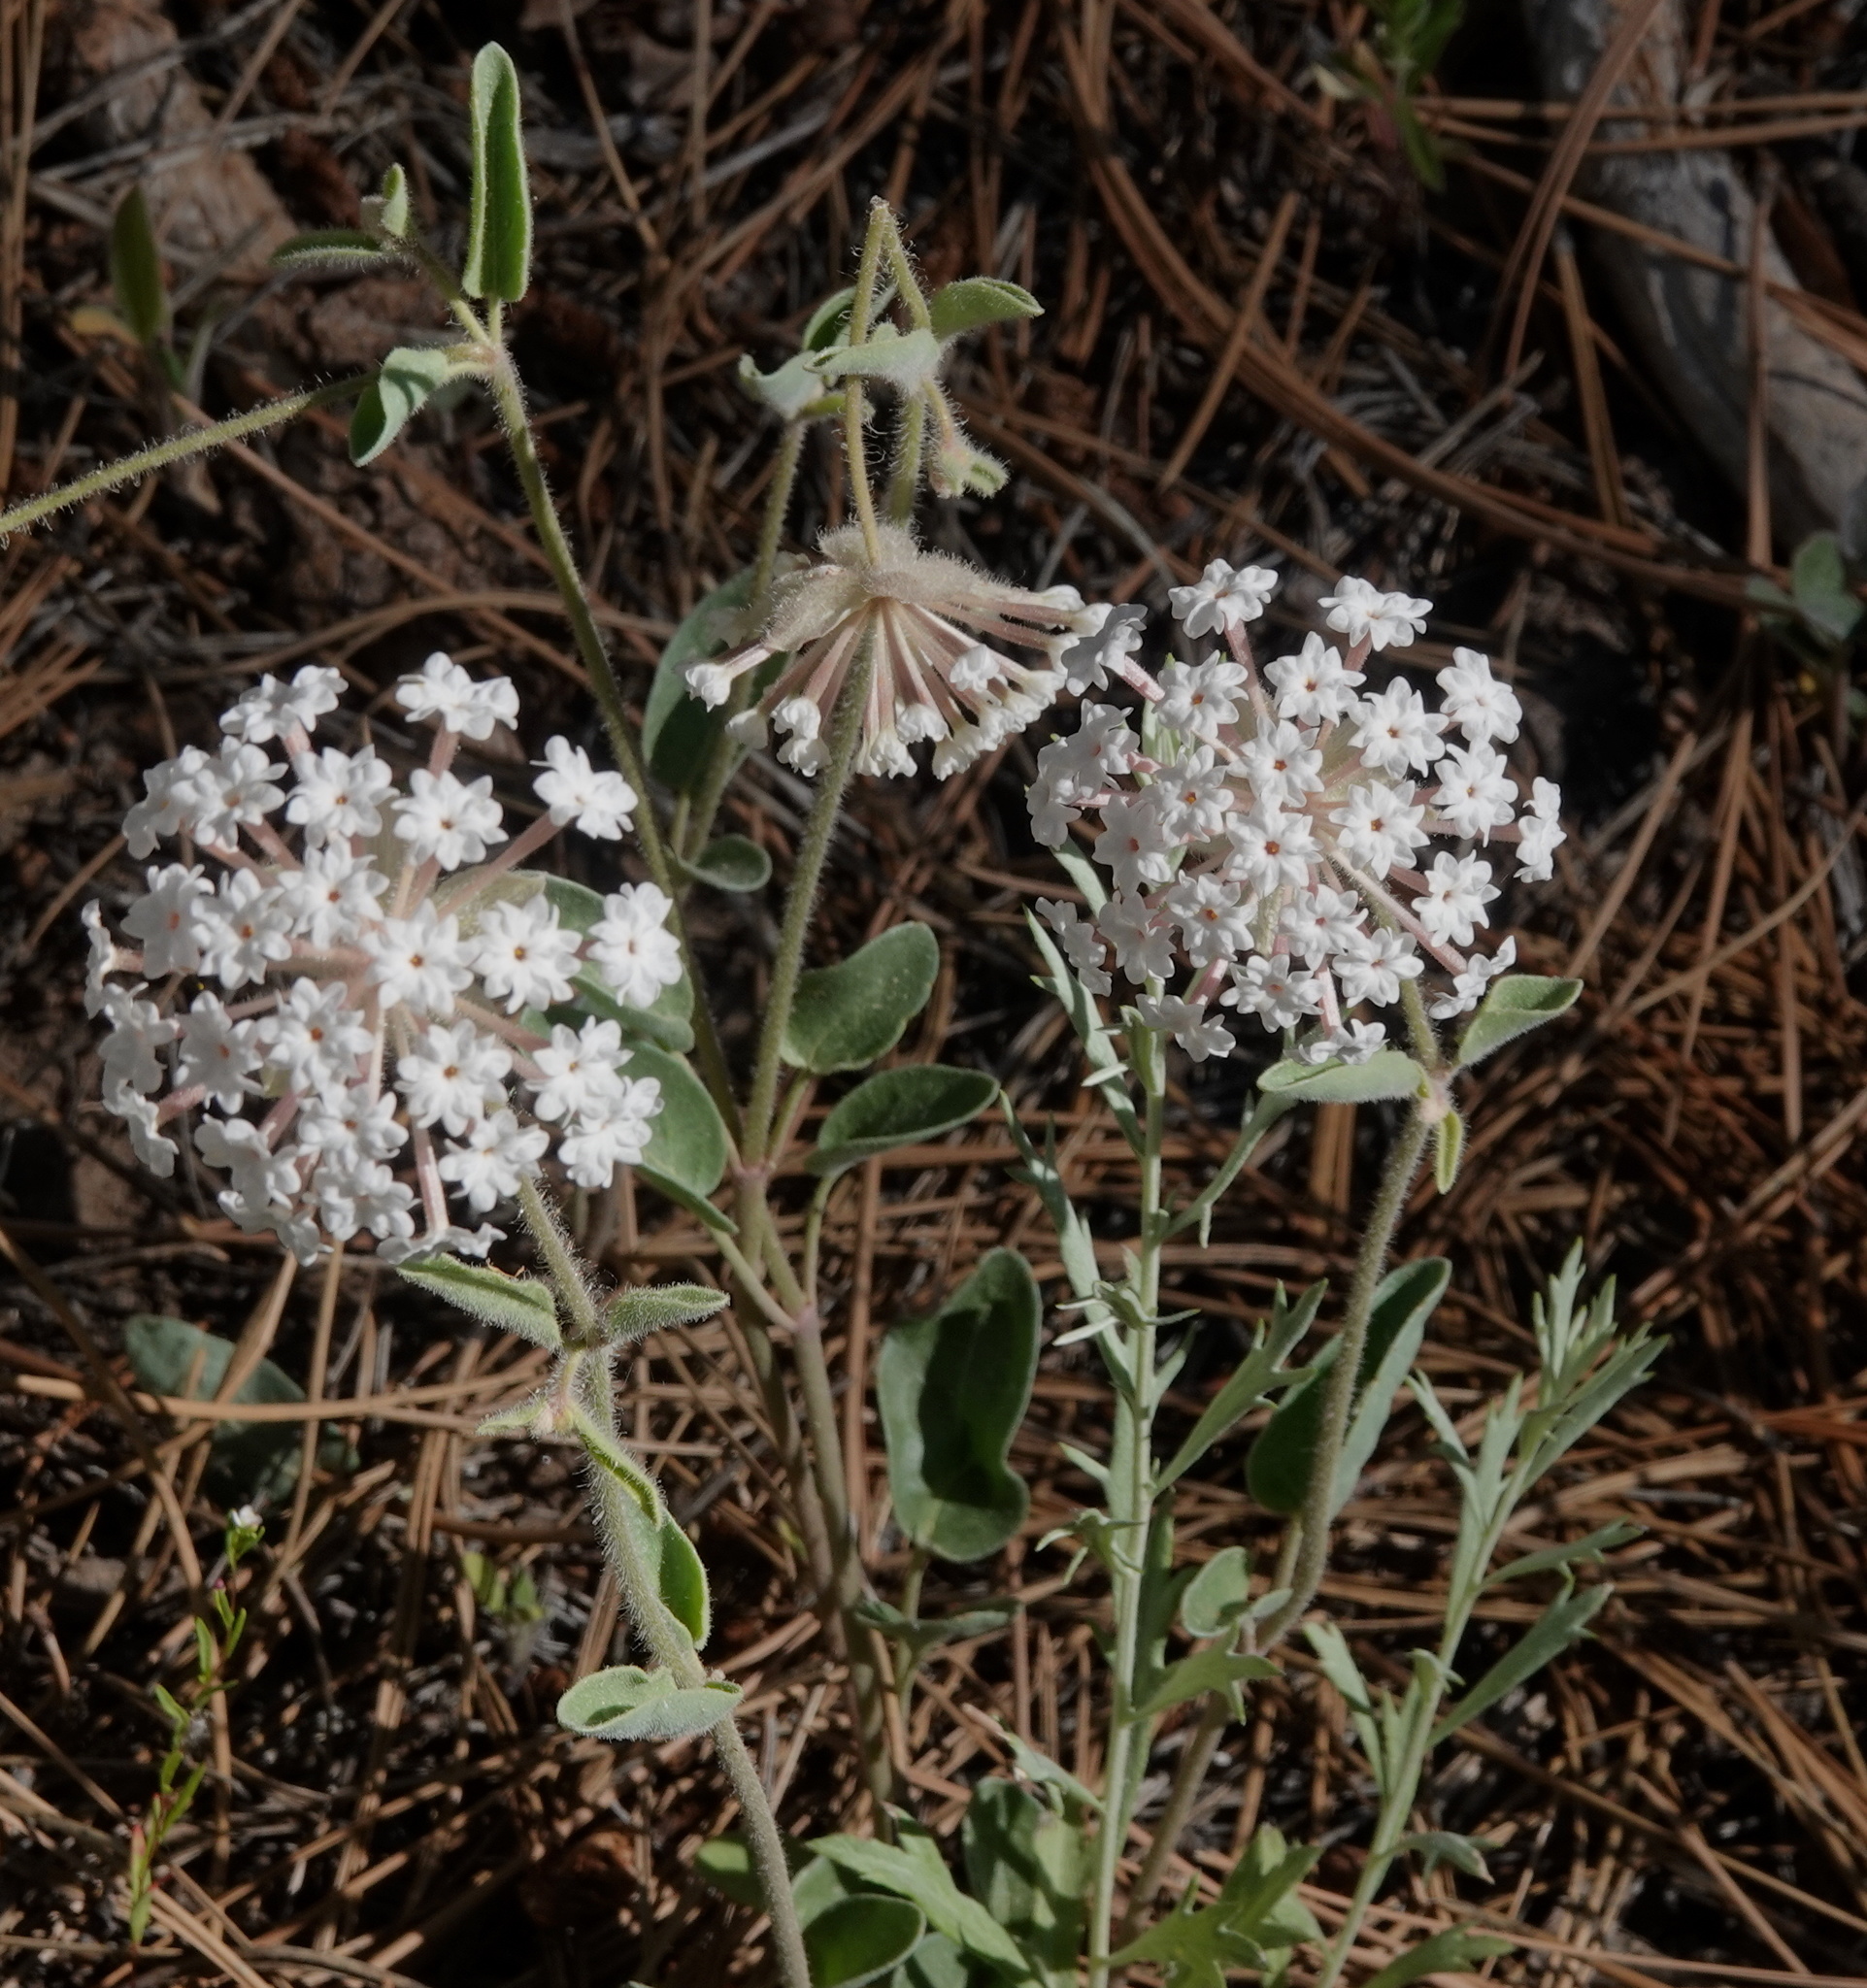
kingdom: Plantae
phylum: Tracheophyta
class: Magnoliopsida
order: Caryophyllales
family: Nyctaginaceae
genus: Abronia
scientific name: Abronia elliptica
